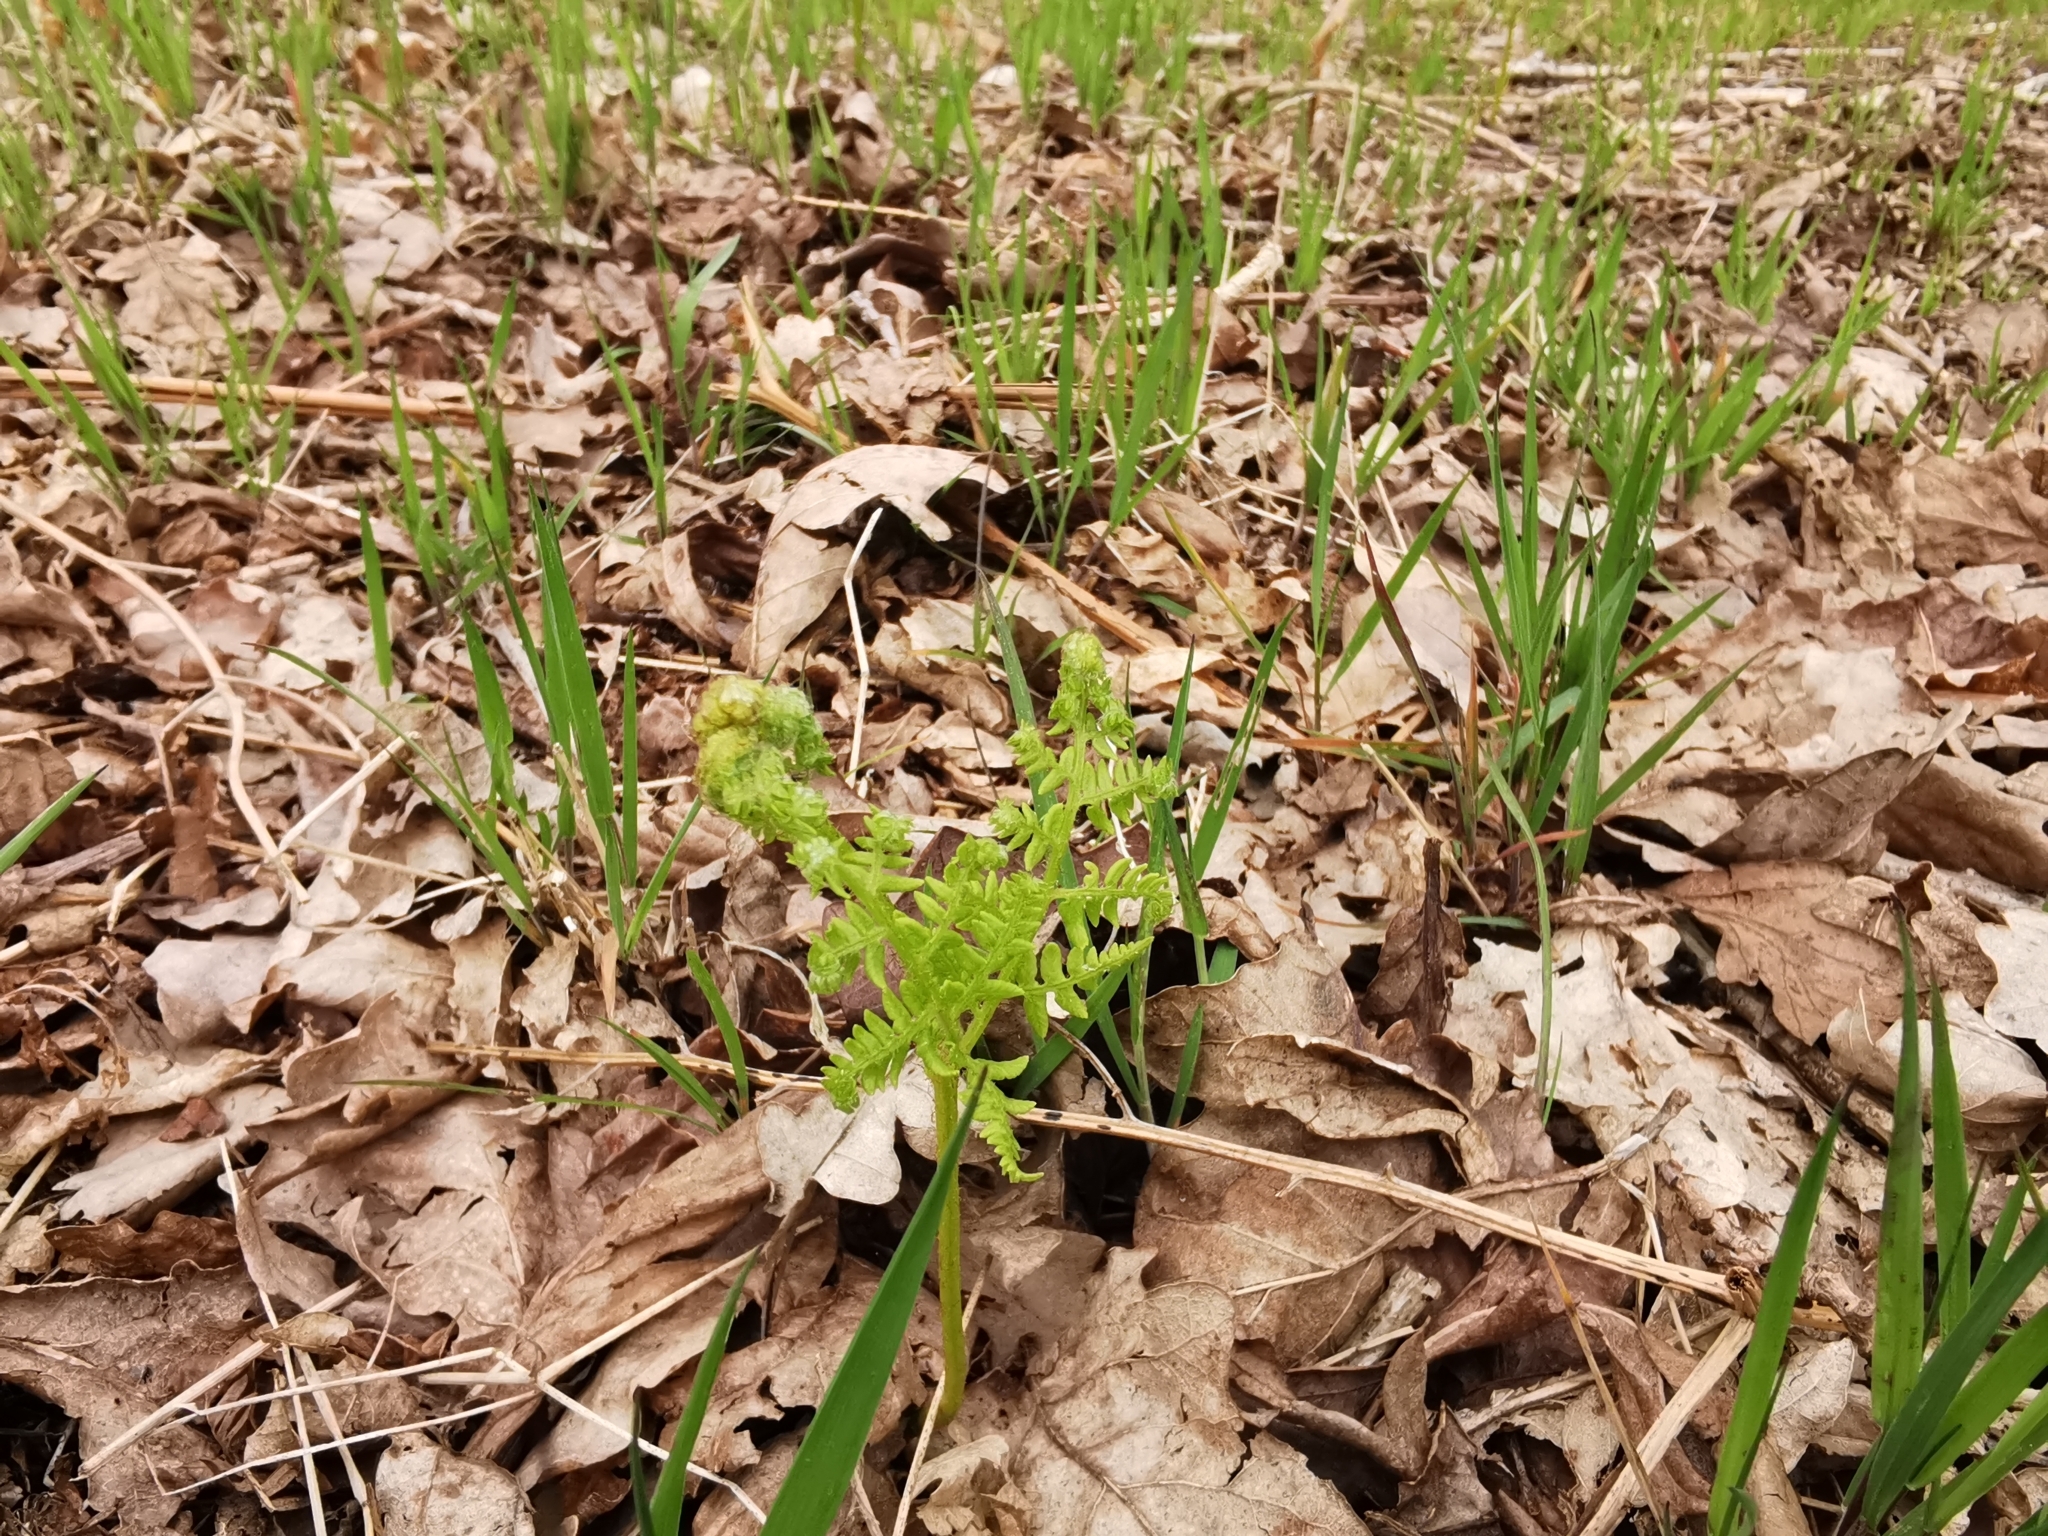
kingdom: Plantae
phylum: Tracheophyta
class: Polypodiopsida
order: Polypodiales
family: Dennstaedtiaceae
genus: Pteridium
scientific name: Pteridium aquilinum
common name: Bracken
